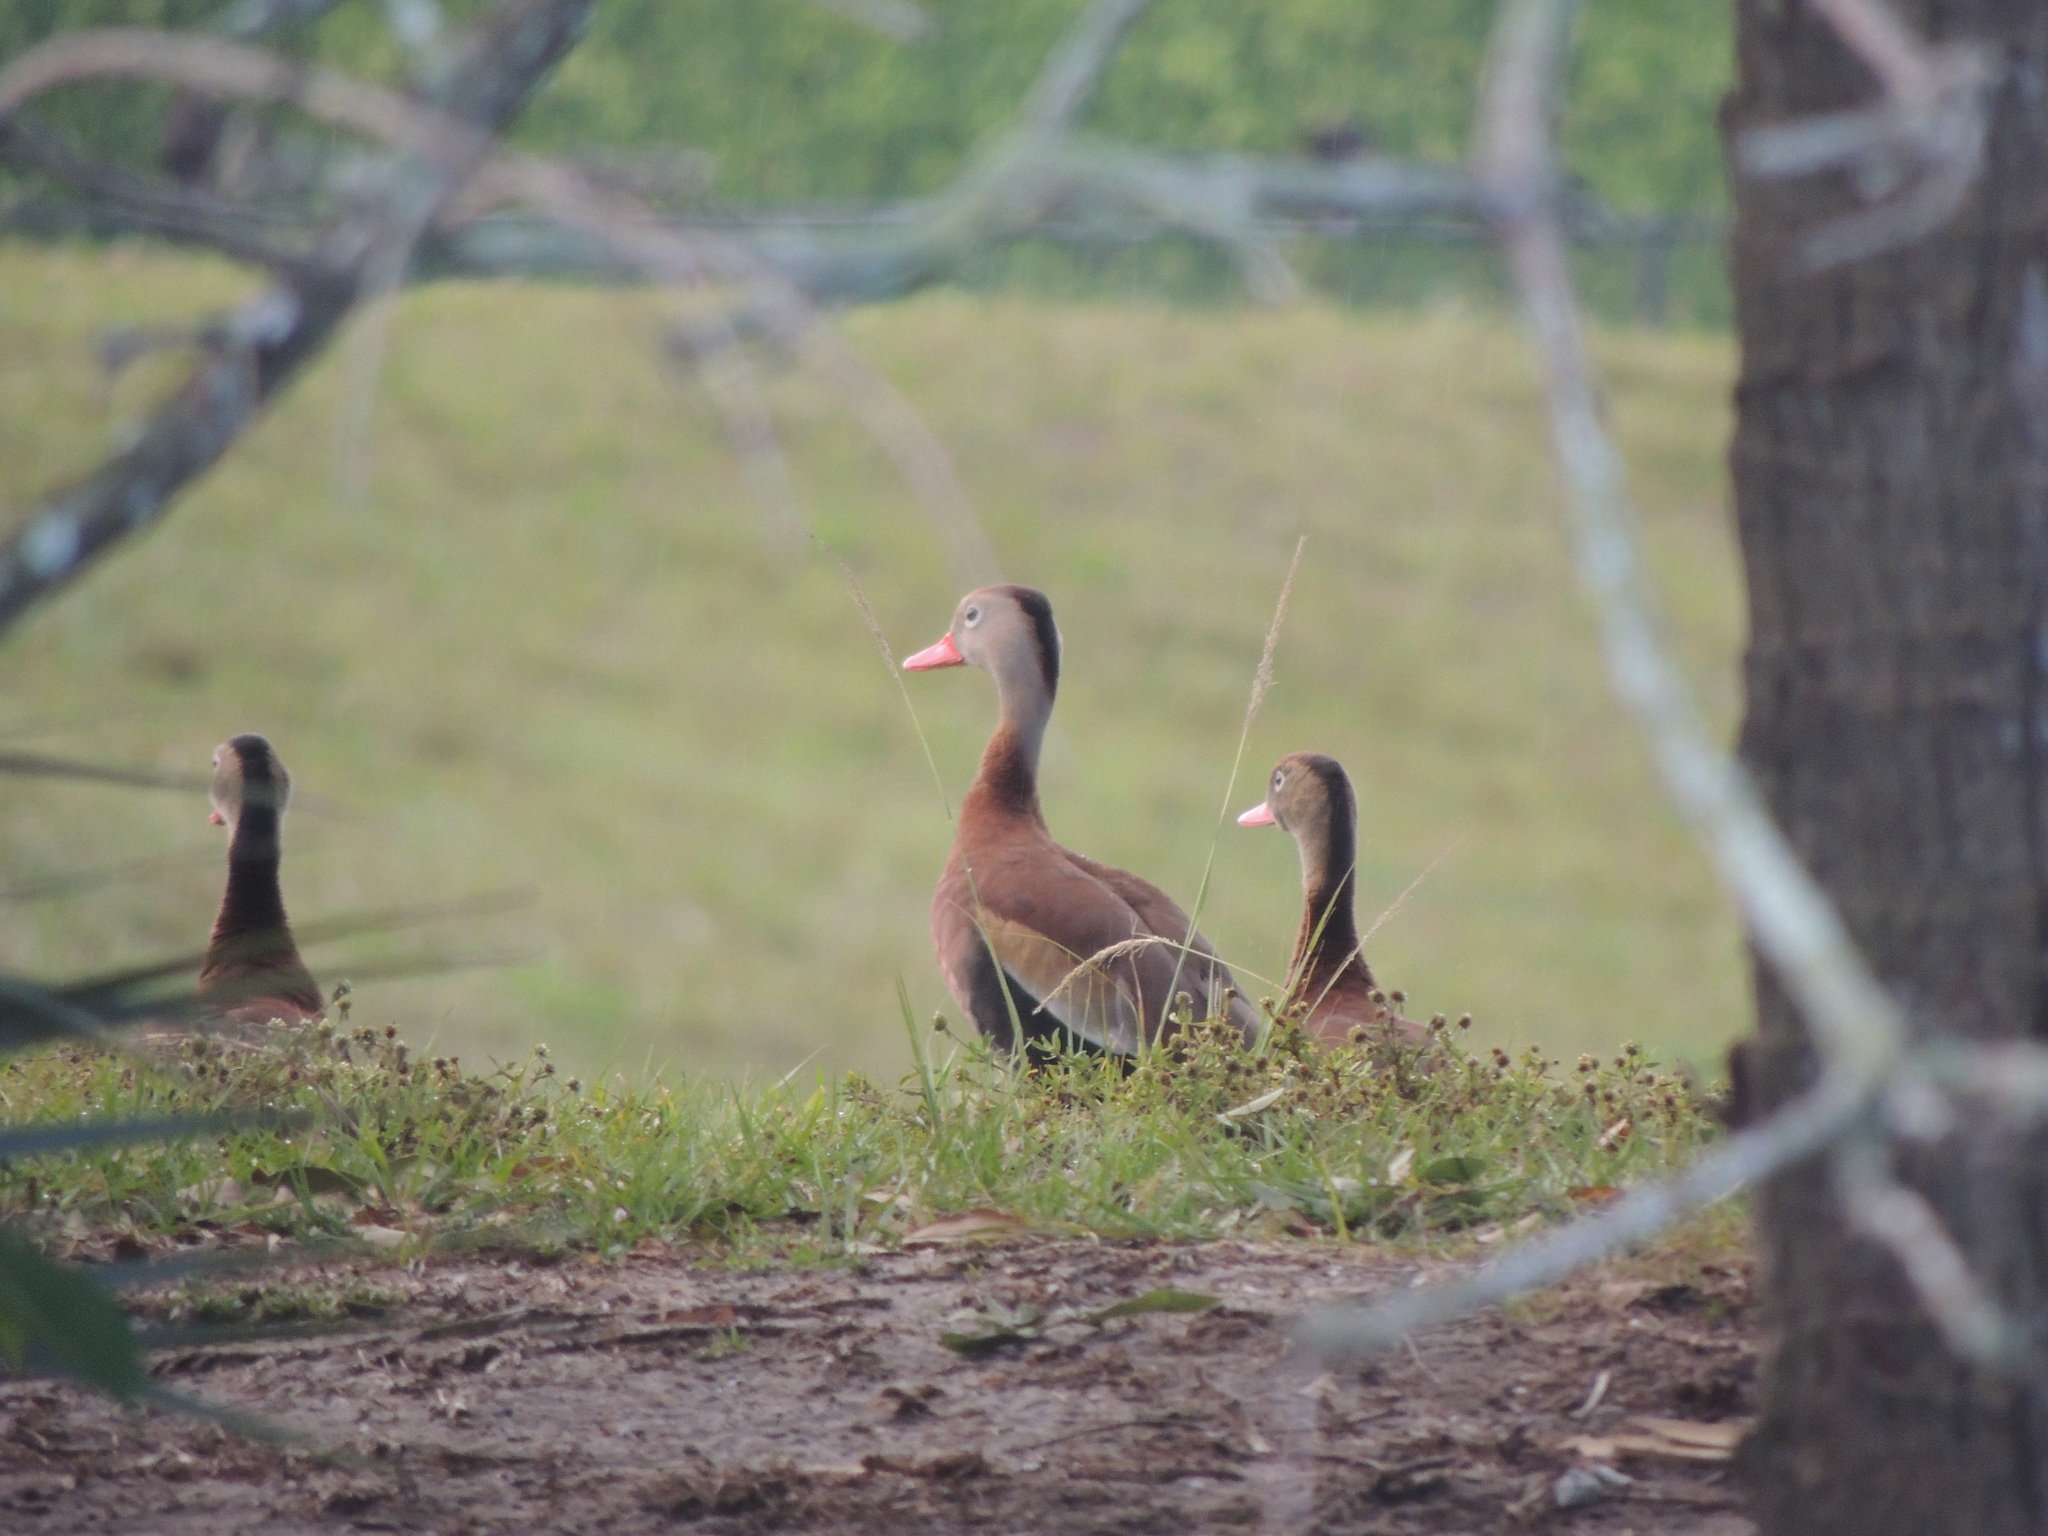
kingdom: Animalia
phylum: Chordata
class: Aves
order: Anseriformes
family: Anatidae
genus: Dendrocygna
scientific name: Dendrocygna autumnalis
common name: Black-bellied whistling duck
